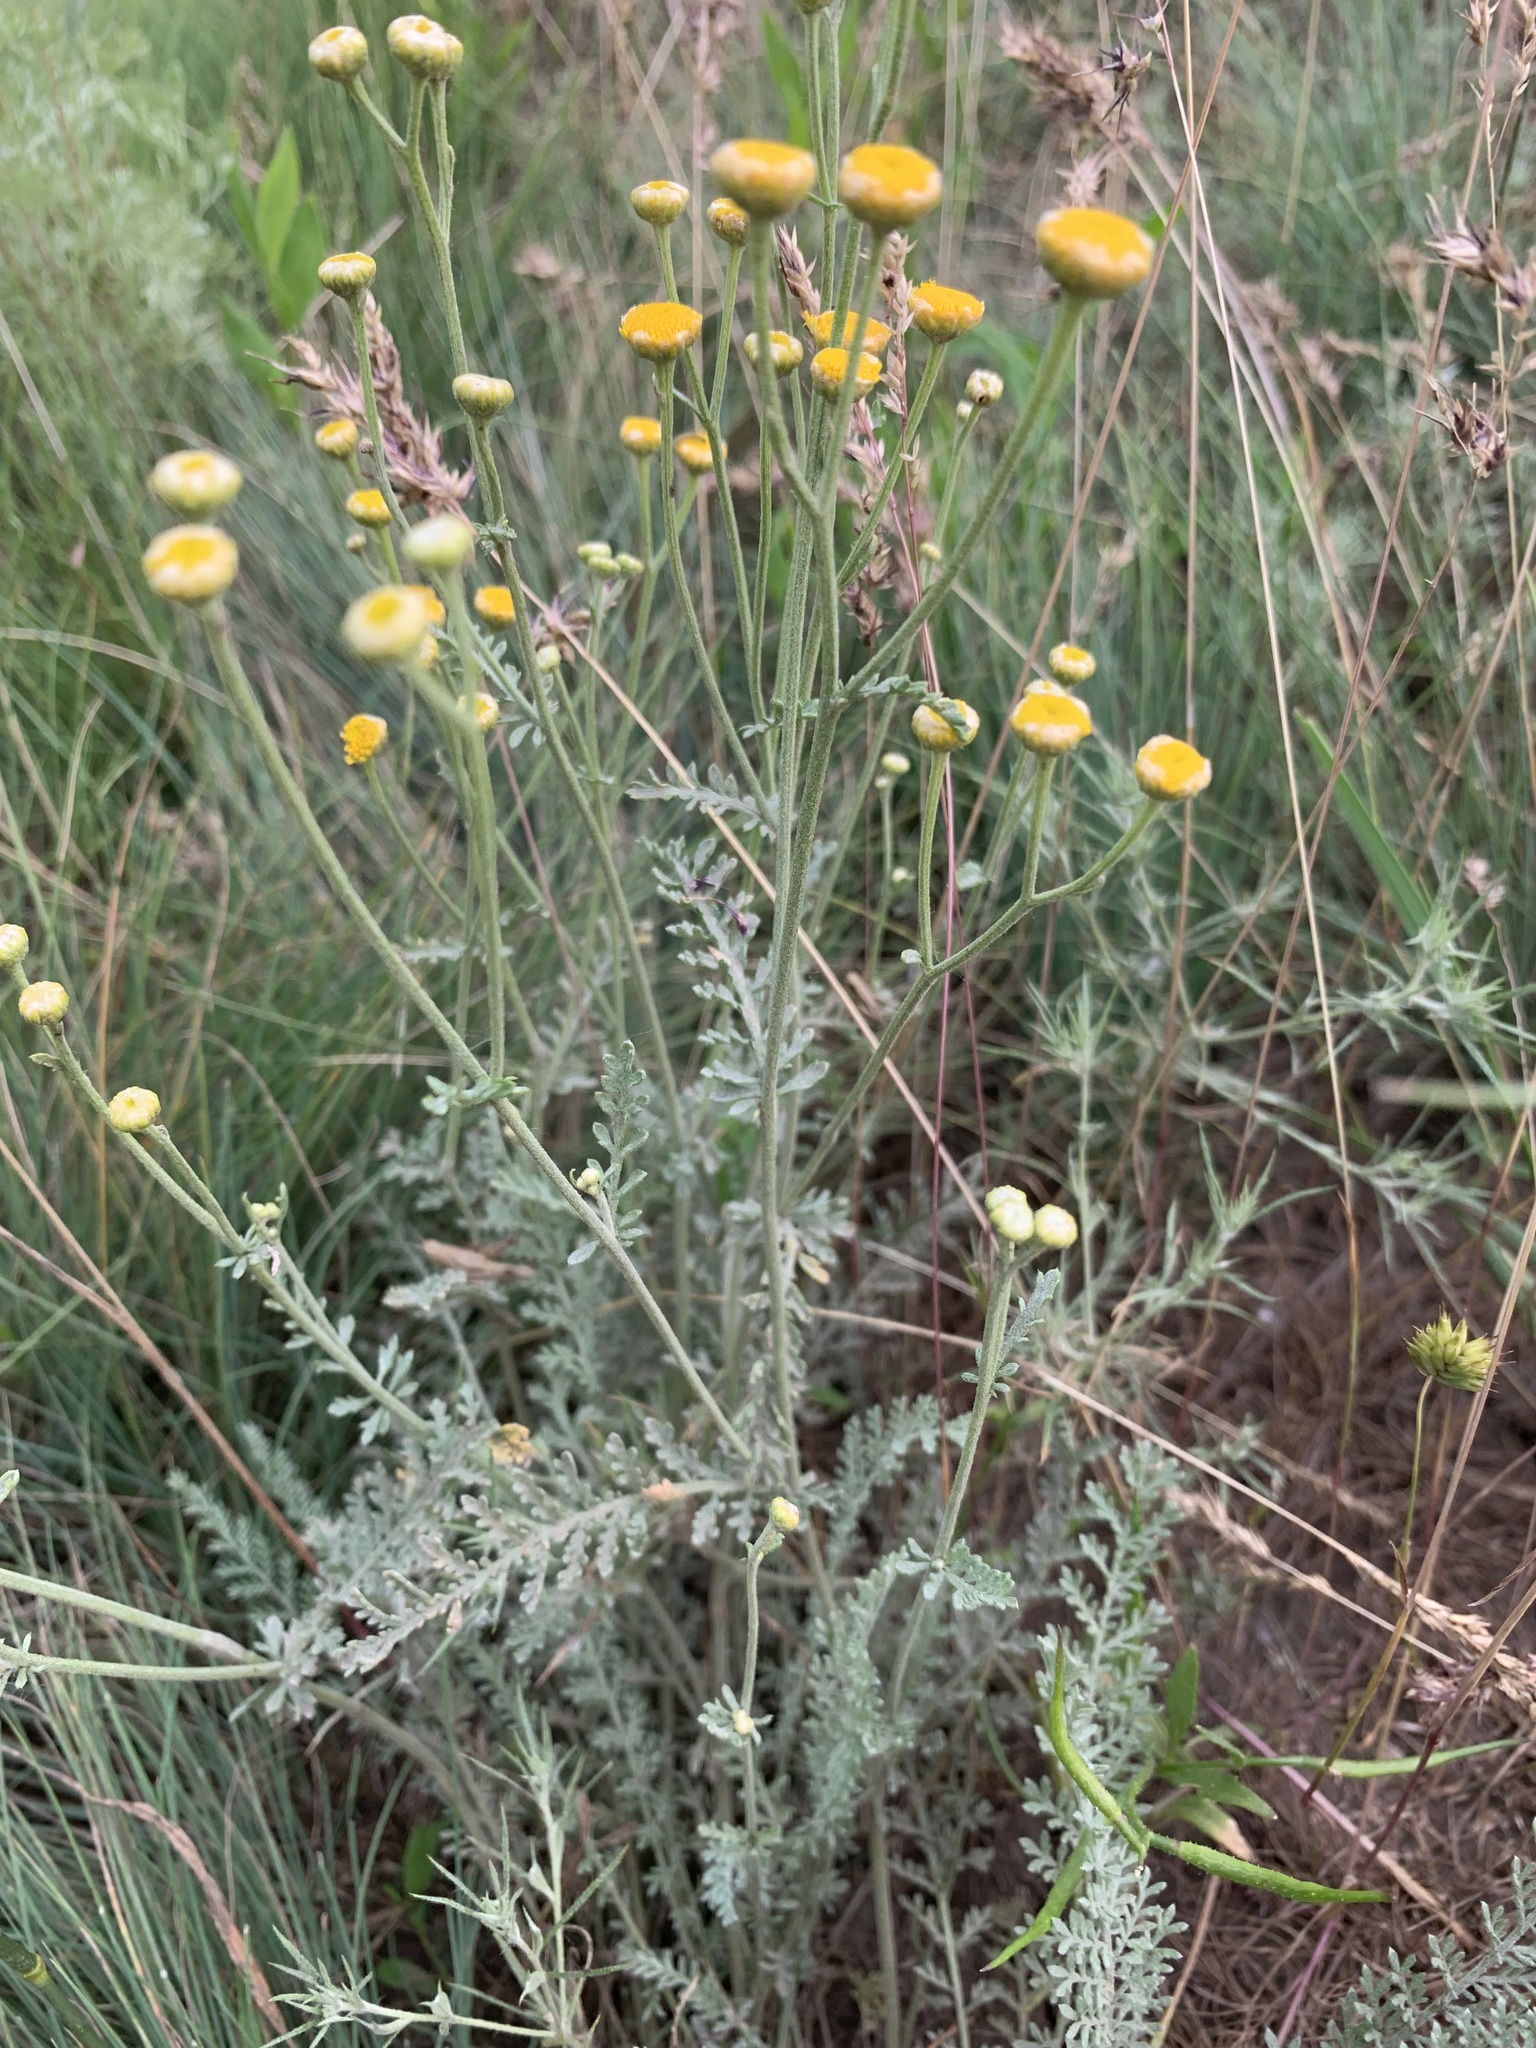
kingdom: Plantae
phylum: Tracheophyta
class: Magnoliopsida
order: Asterales
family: Asteraceae
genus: Tanacetum
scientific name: Tanacetum barclayanum
